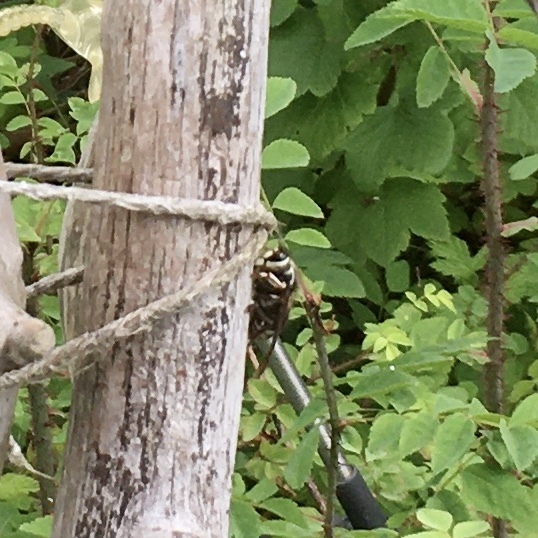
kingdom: Animalia
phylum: Arthropoda
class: Insecta
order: Hymenoptera
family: Vespidae
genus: Dolichovespula
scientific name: Dolichovespula maculata
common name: Bald-faced hornet
